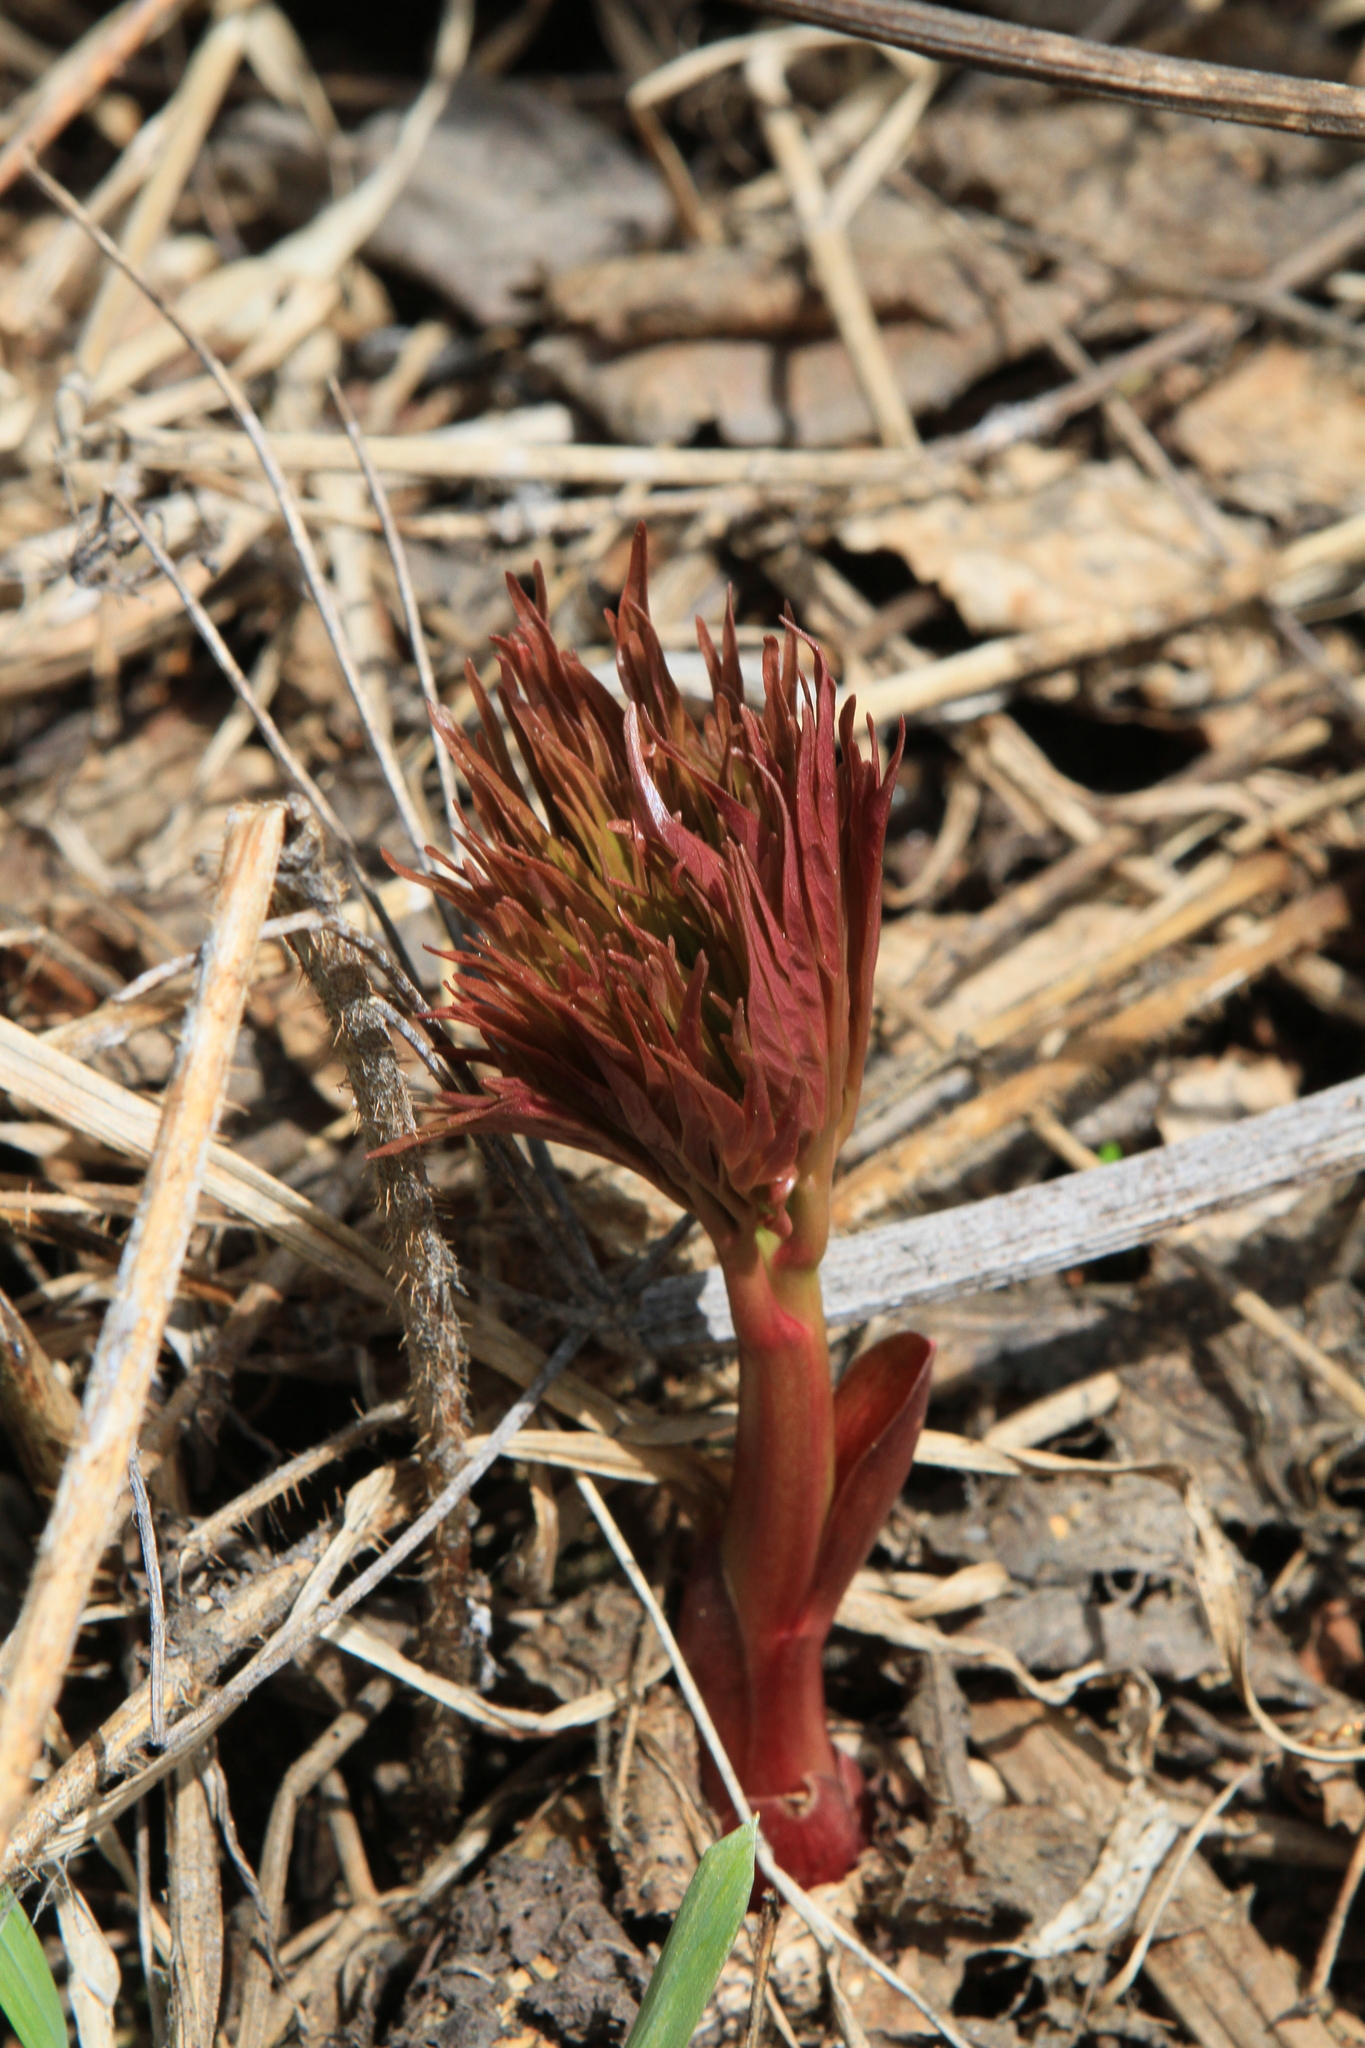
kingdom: Plantae
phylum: Tracheophyta
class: Magnoliopsida
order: Saxifragales
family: Paeoniaceae
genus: Paeonia
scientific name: Paeonia anomala
